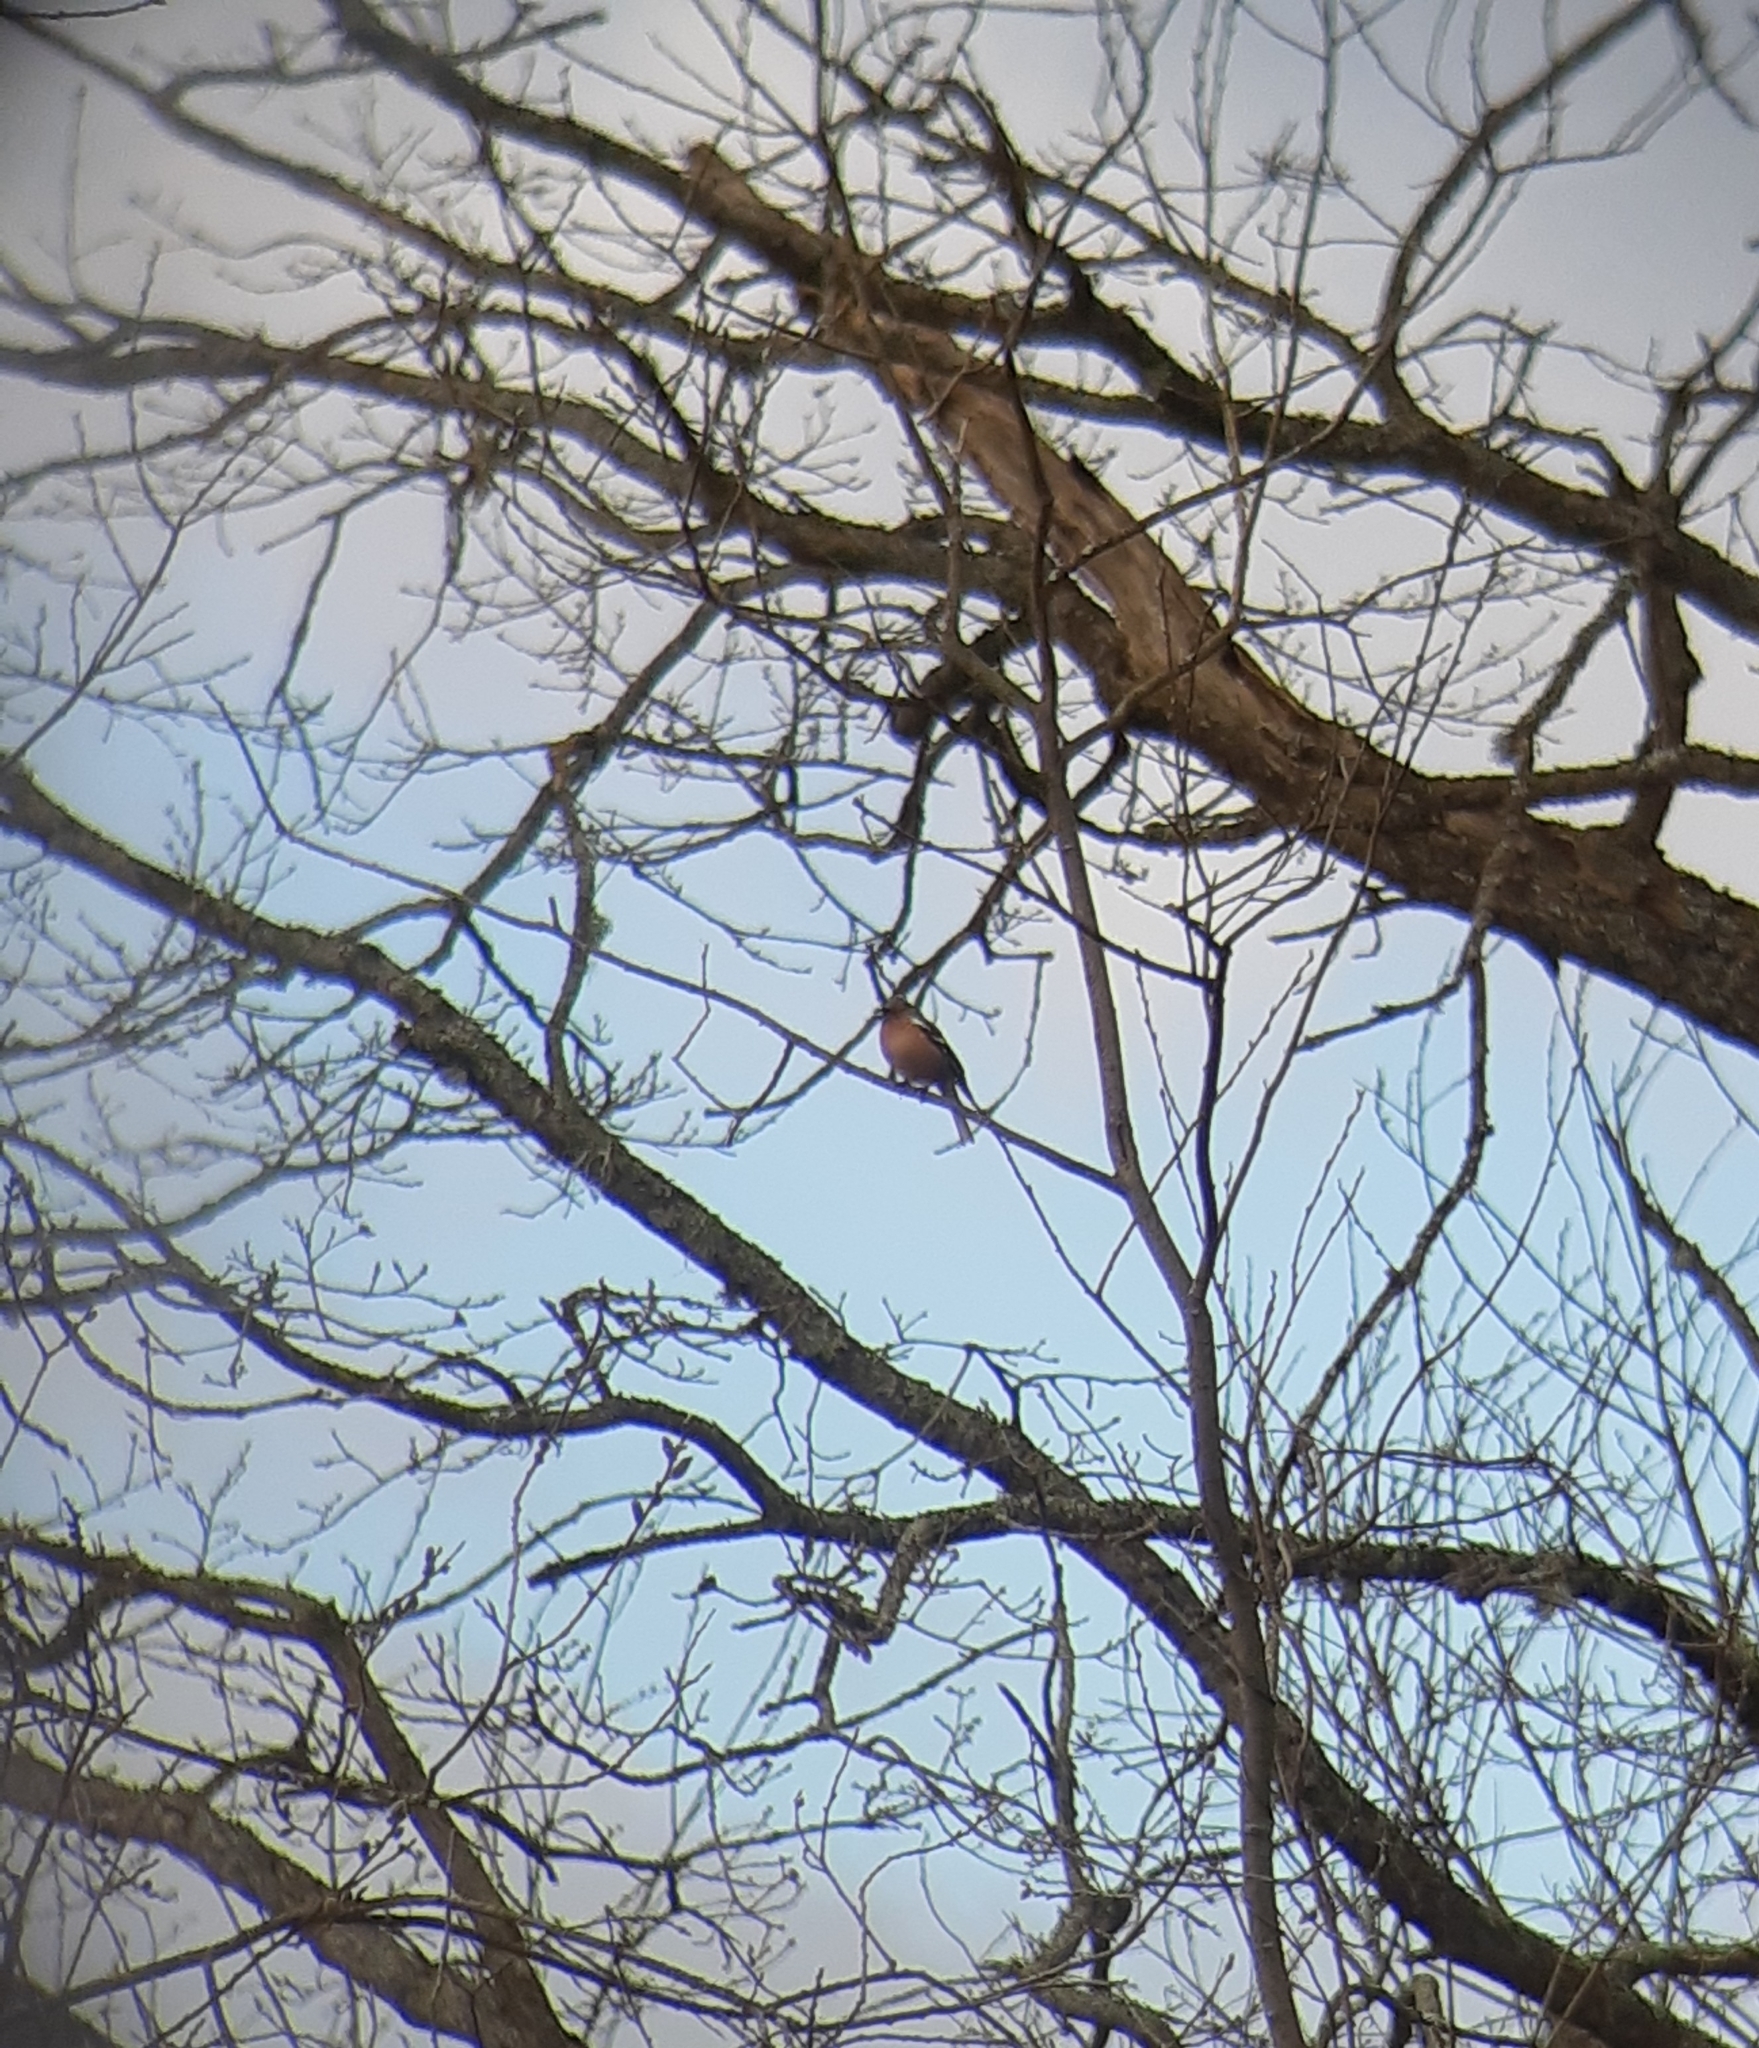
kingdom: Animalia
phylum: Chordata
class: Aves
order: Passeriformes
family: Fringillidae
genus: Fringilla
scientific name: Fringilla coelebs
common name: Common chaffinch
